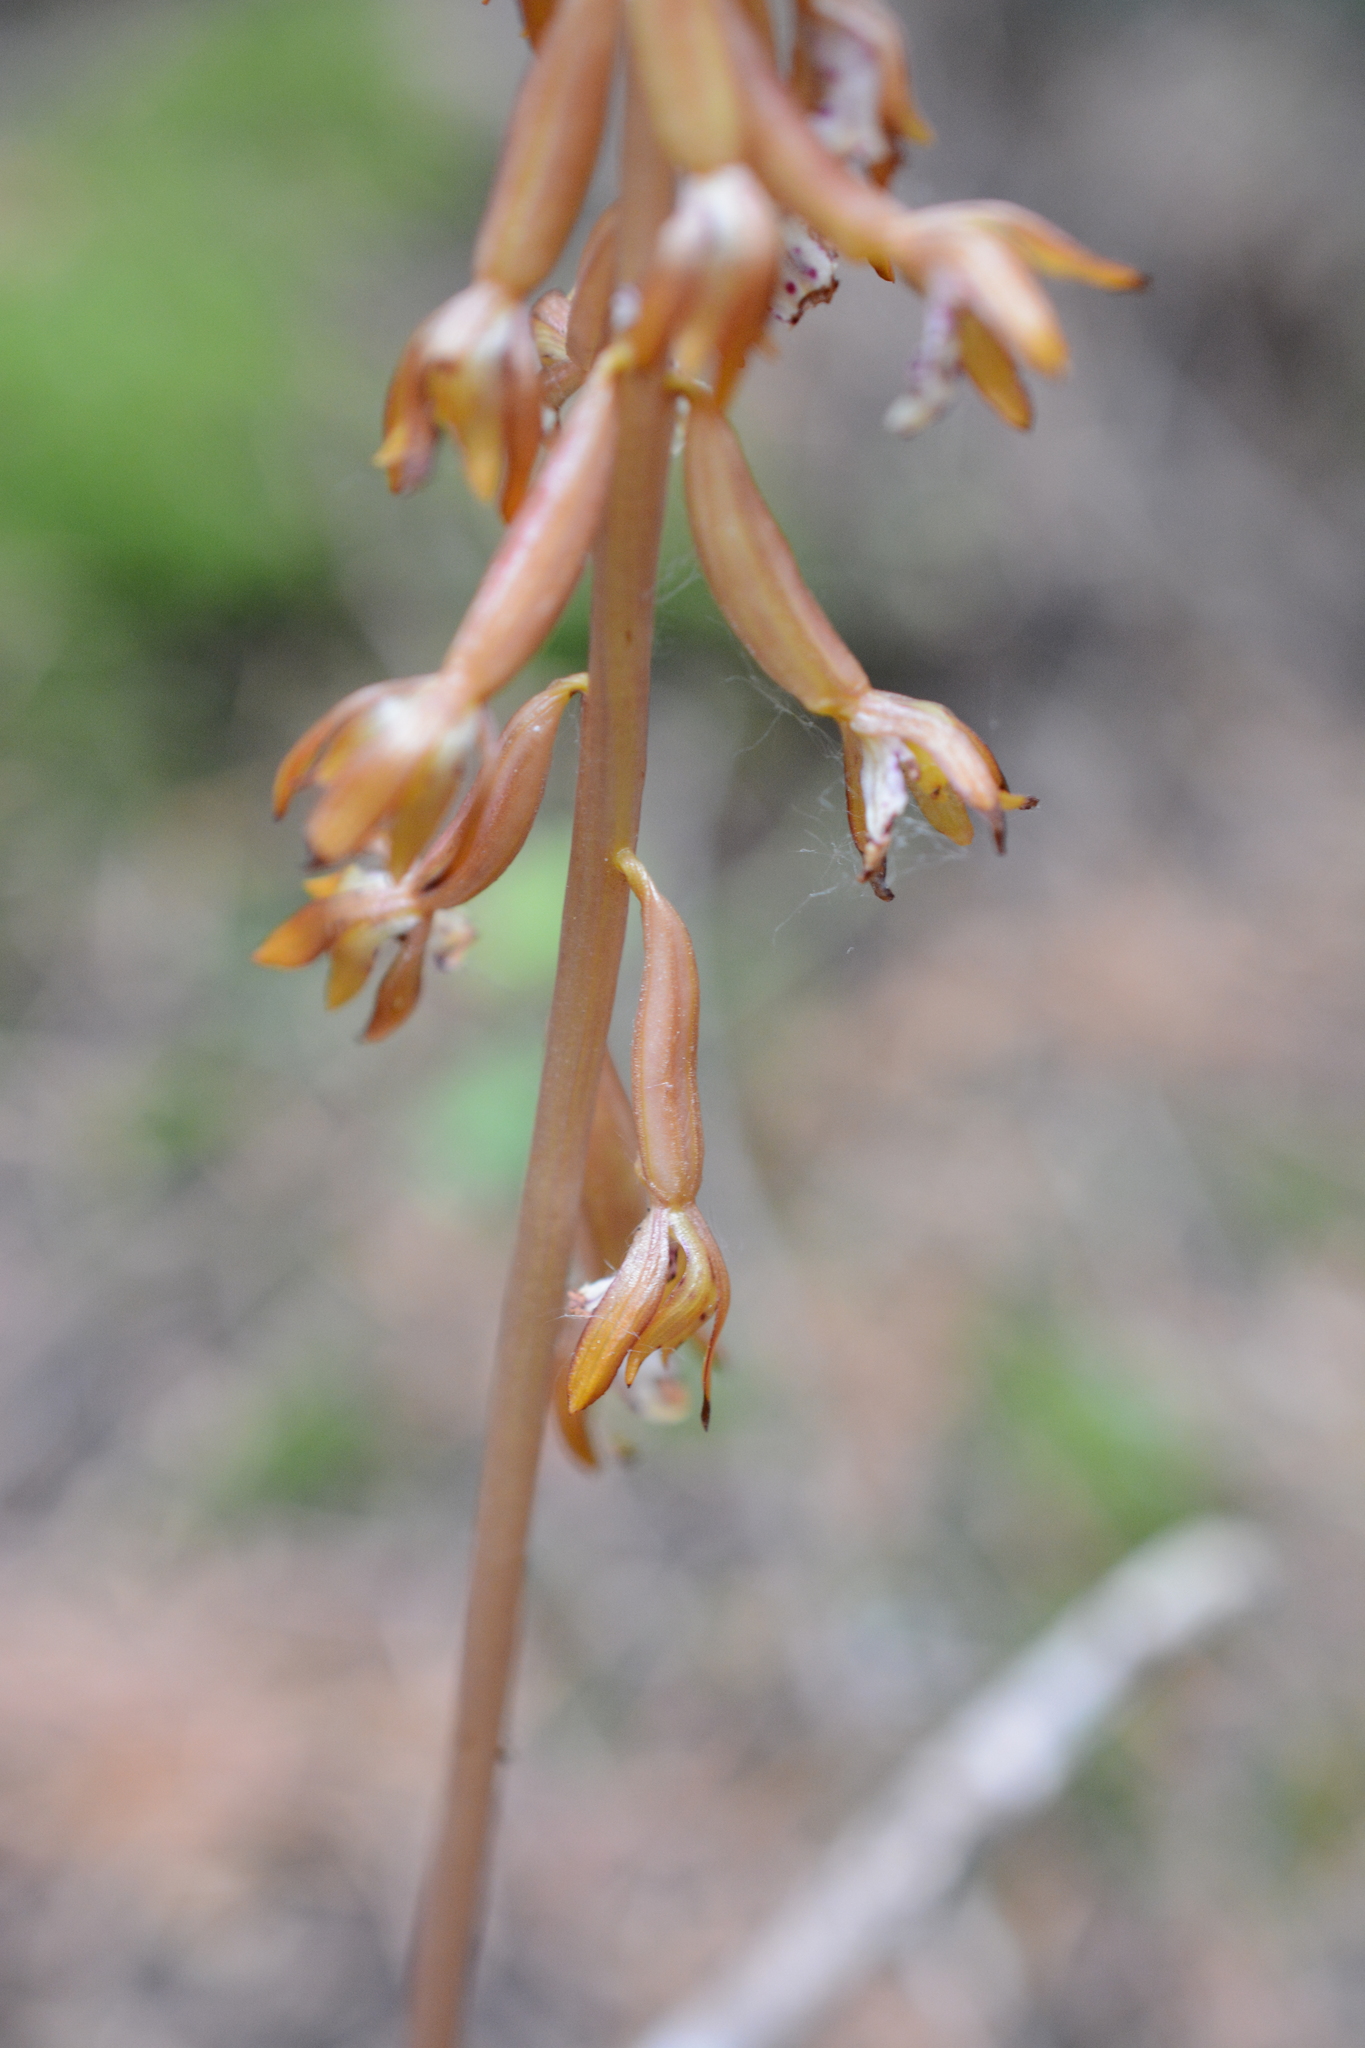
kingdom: Plantae
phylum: Tracheophyta
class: Liliopsida
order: Asparagales
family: Orchidaceae
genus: Corallorhiza
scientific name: Corallorhiza maculata
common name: Spotted coralroot
